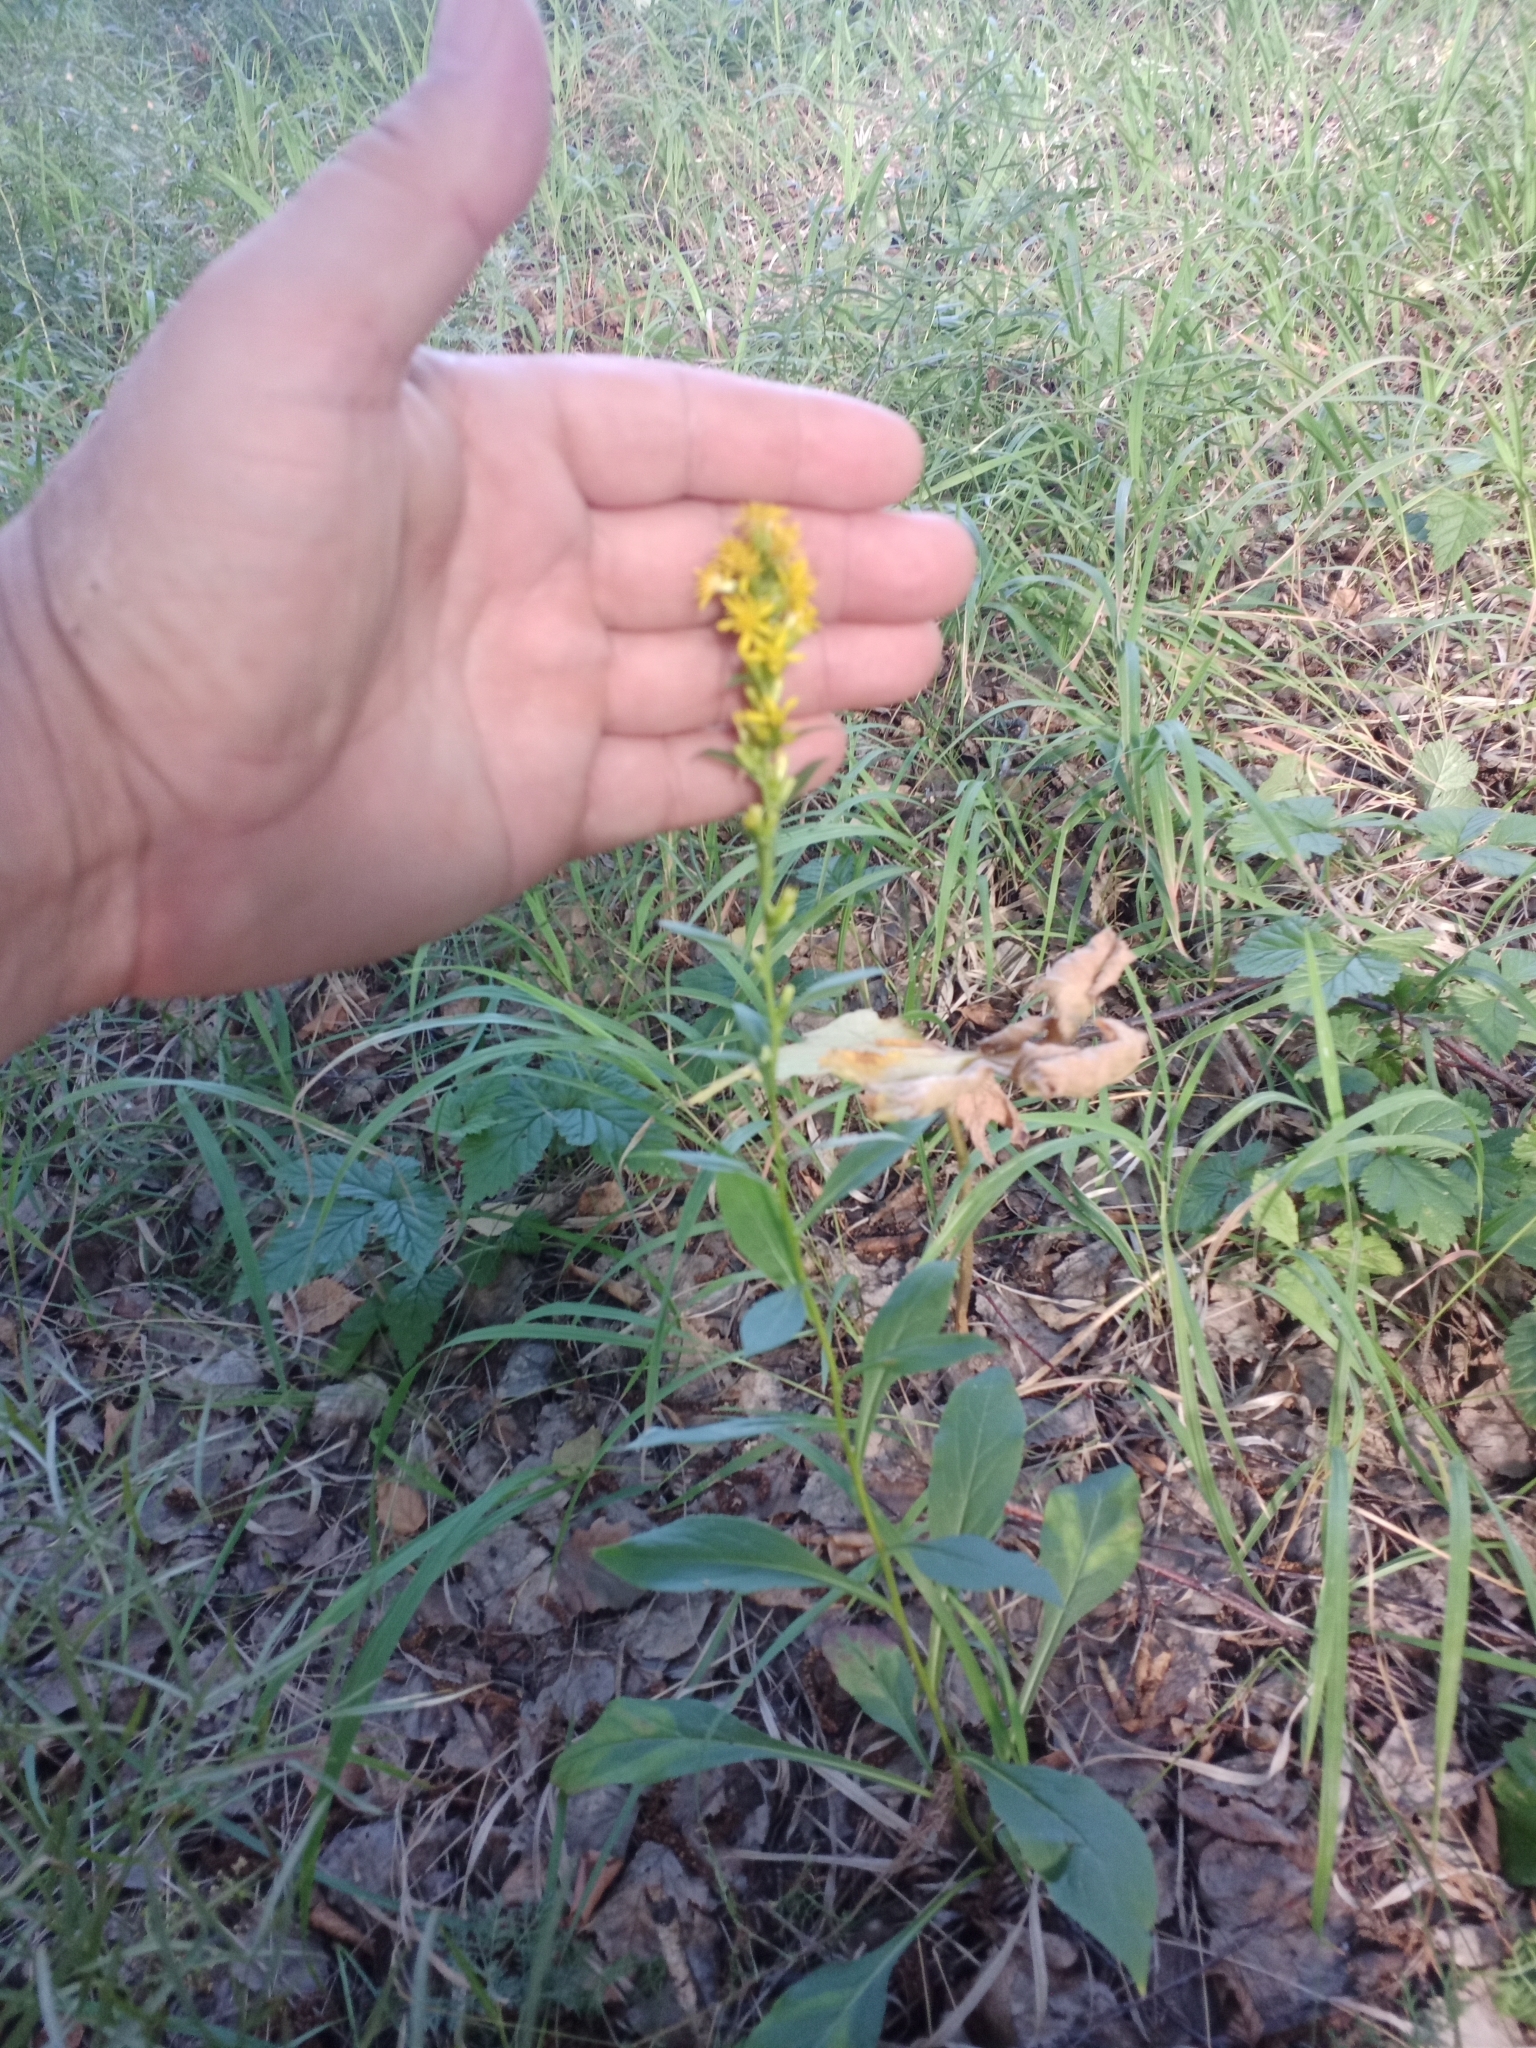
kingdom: Plantae
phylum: Tracheophyta
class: Magnoliopsida
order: Asterales
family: Asteraceae
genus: Solidago
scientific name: Solidago virgaurea
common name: Goldenrod
